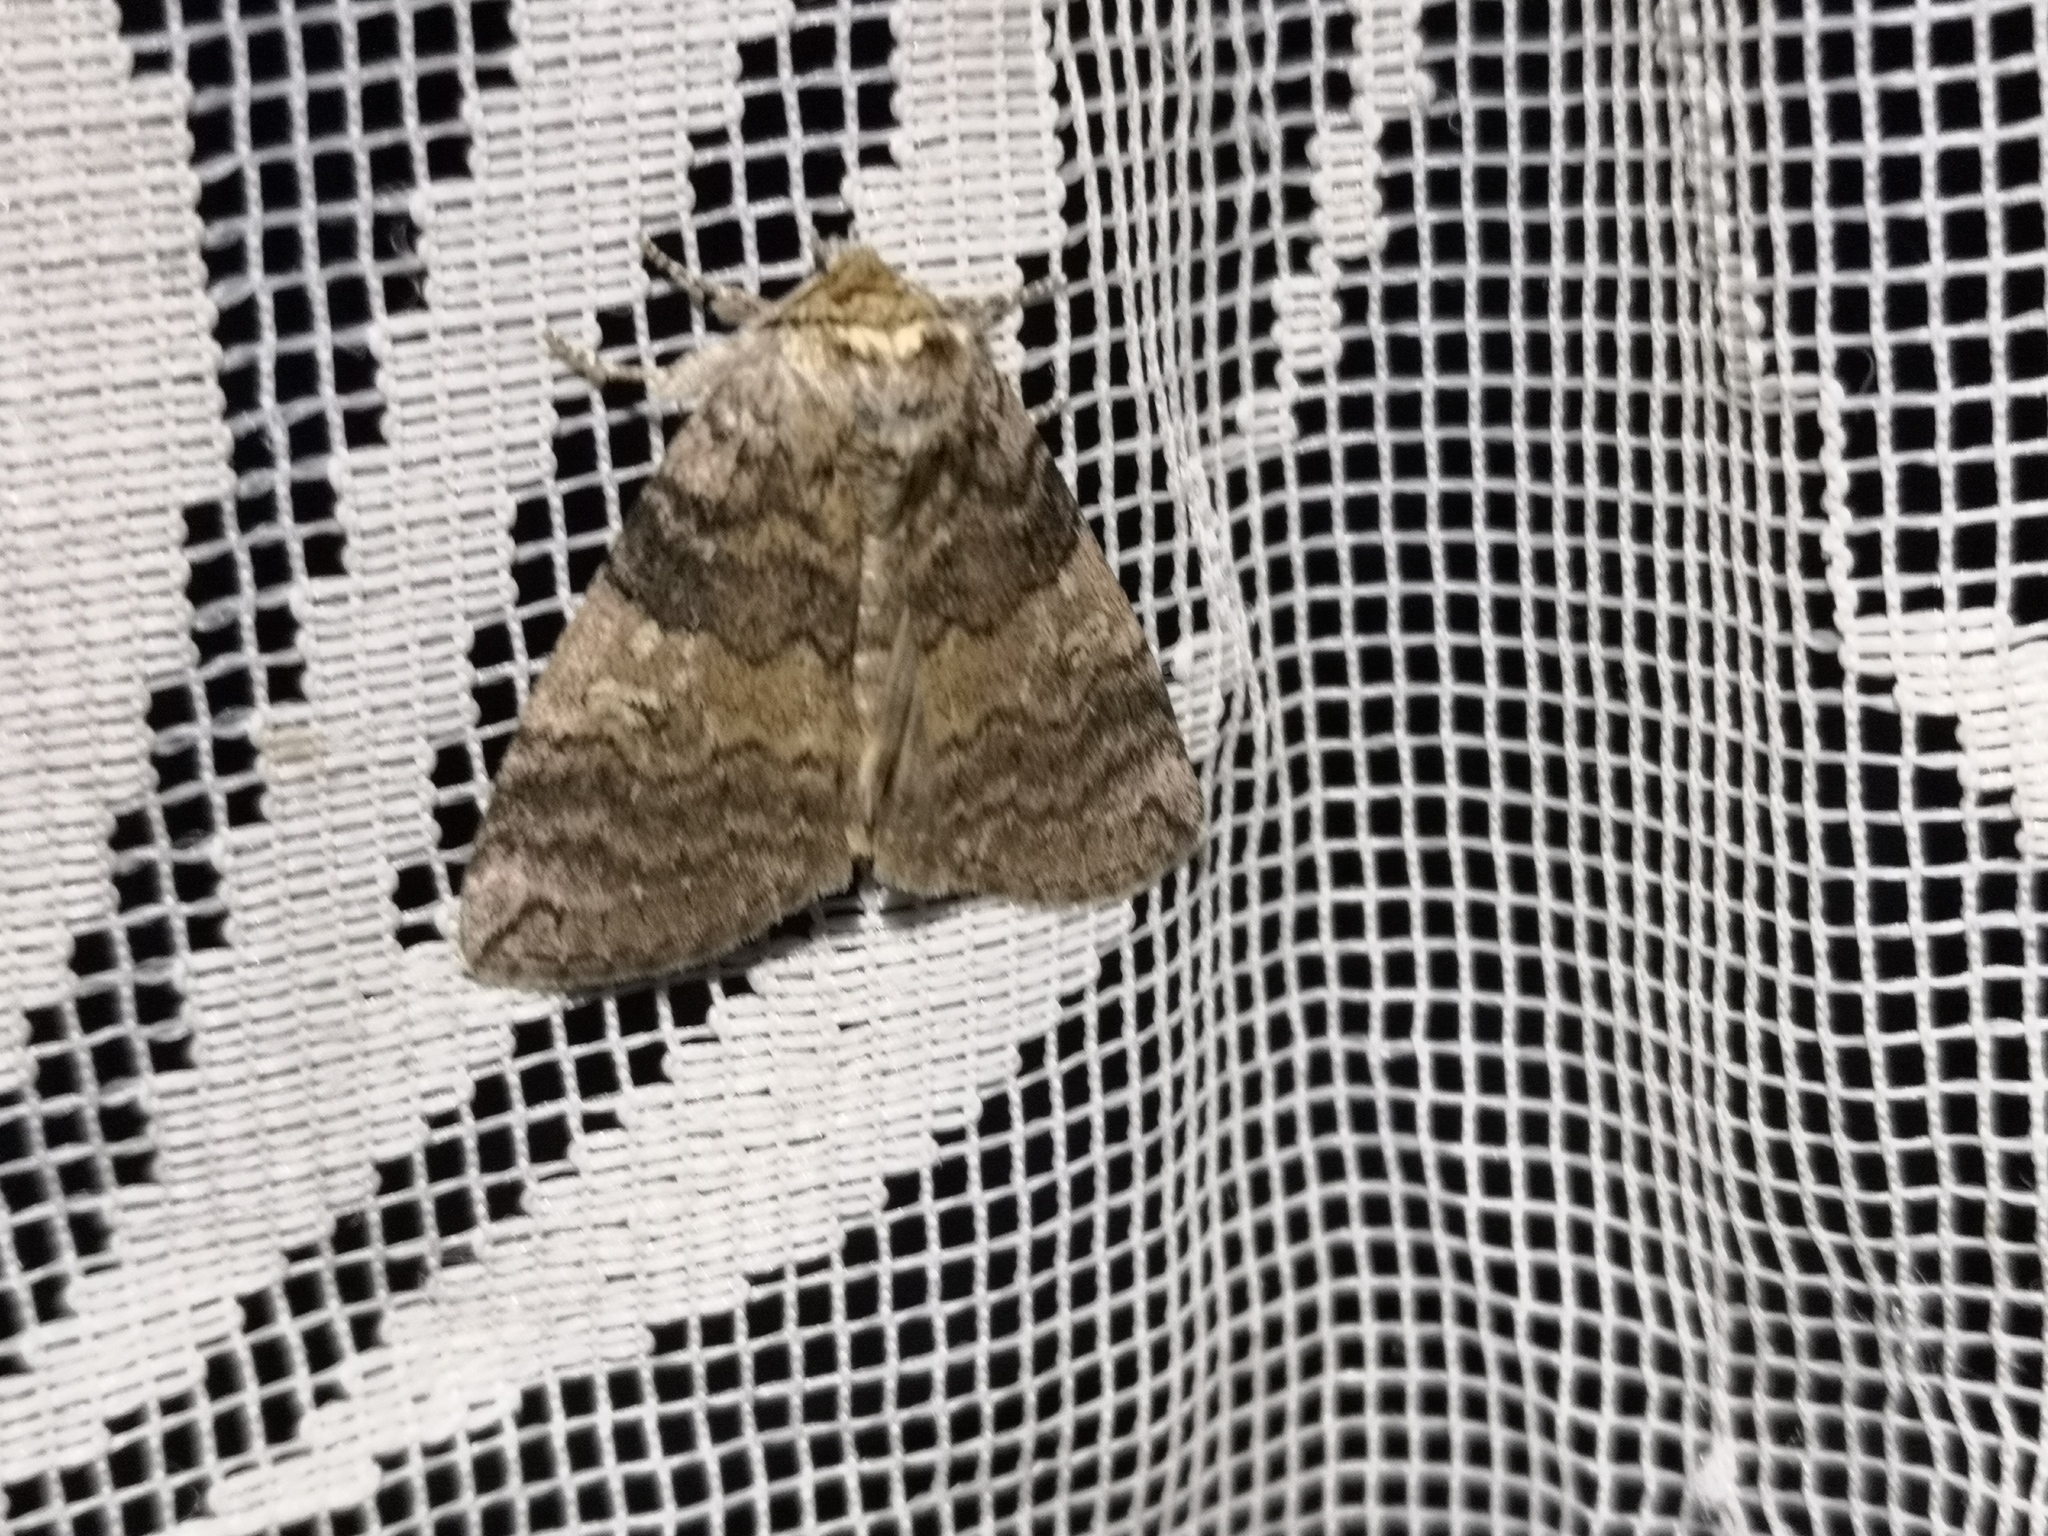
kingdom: Animalia
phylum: Arthropoda
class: Insecta
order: Lepidoptera
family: Drepanidae
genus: Tethea
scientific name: Tethea or
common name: Poplar lutestring
